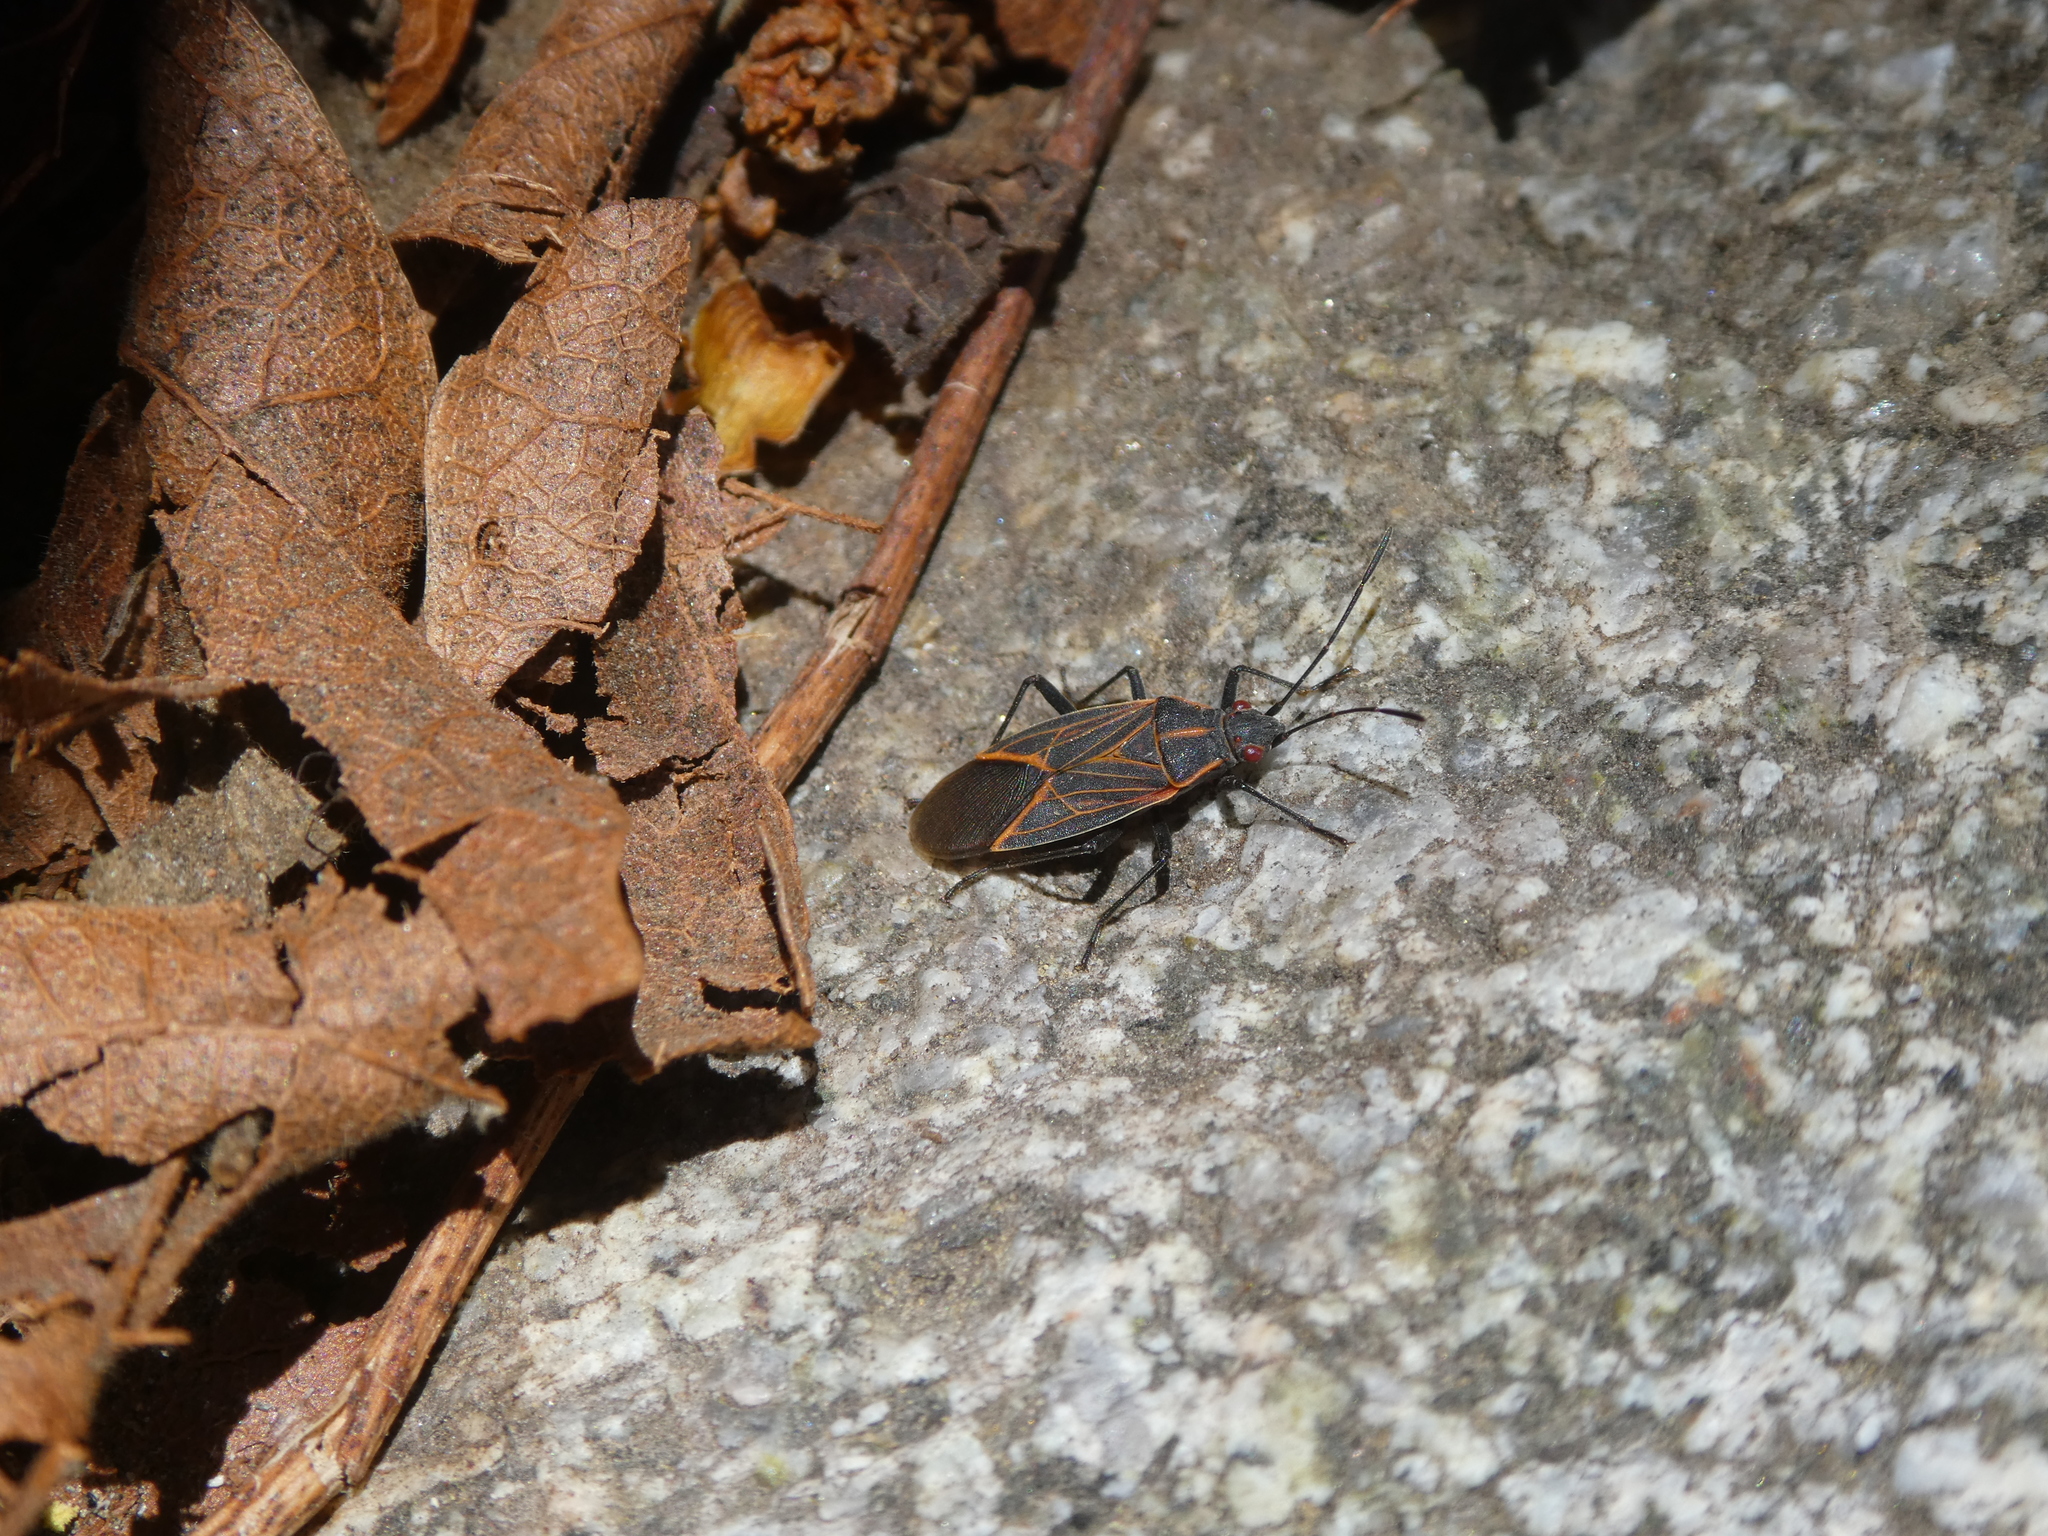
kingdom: Animalia
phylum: Arthropoda
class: Insecta
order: Hemiptera
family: Rhopalidae
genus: Boisea
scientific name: Boisea rubrolineata
